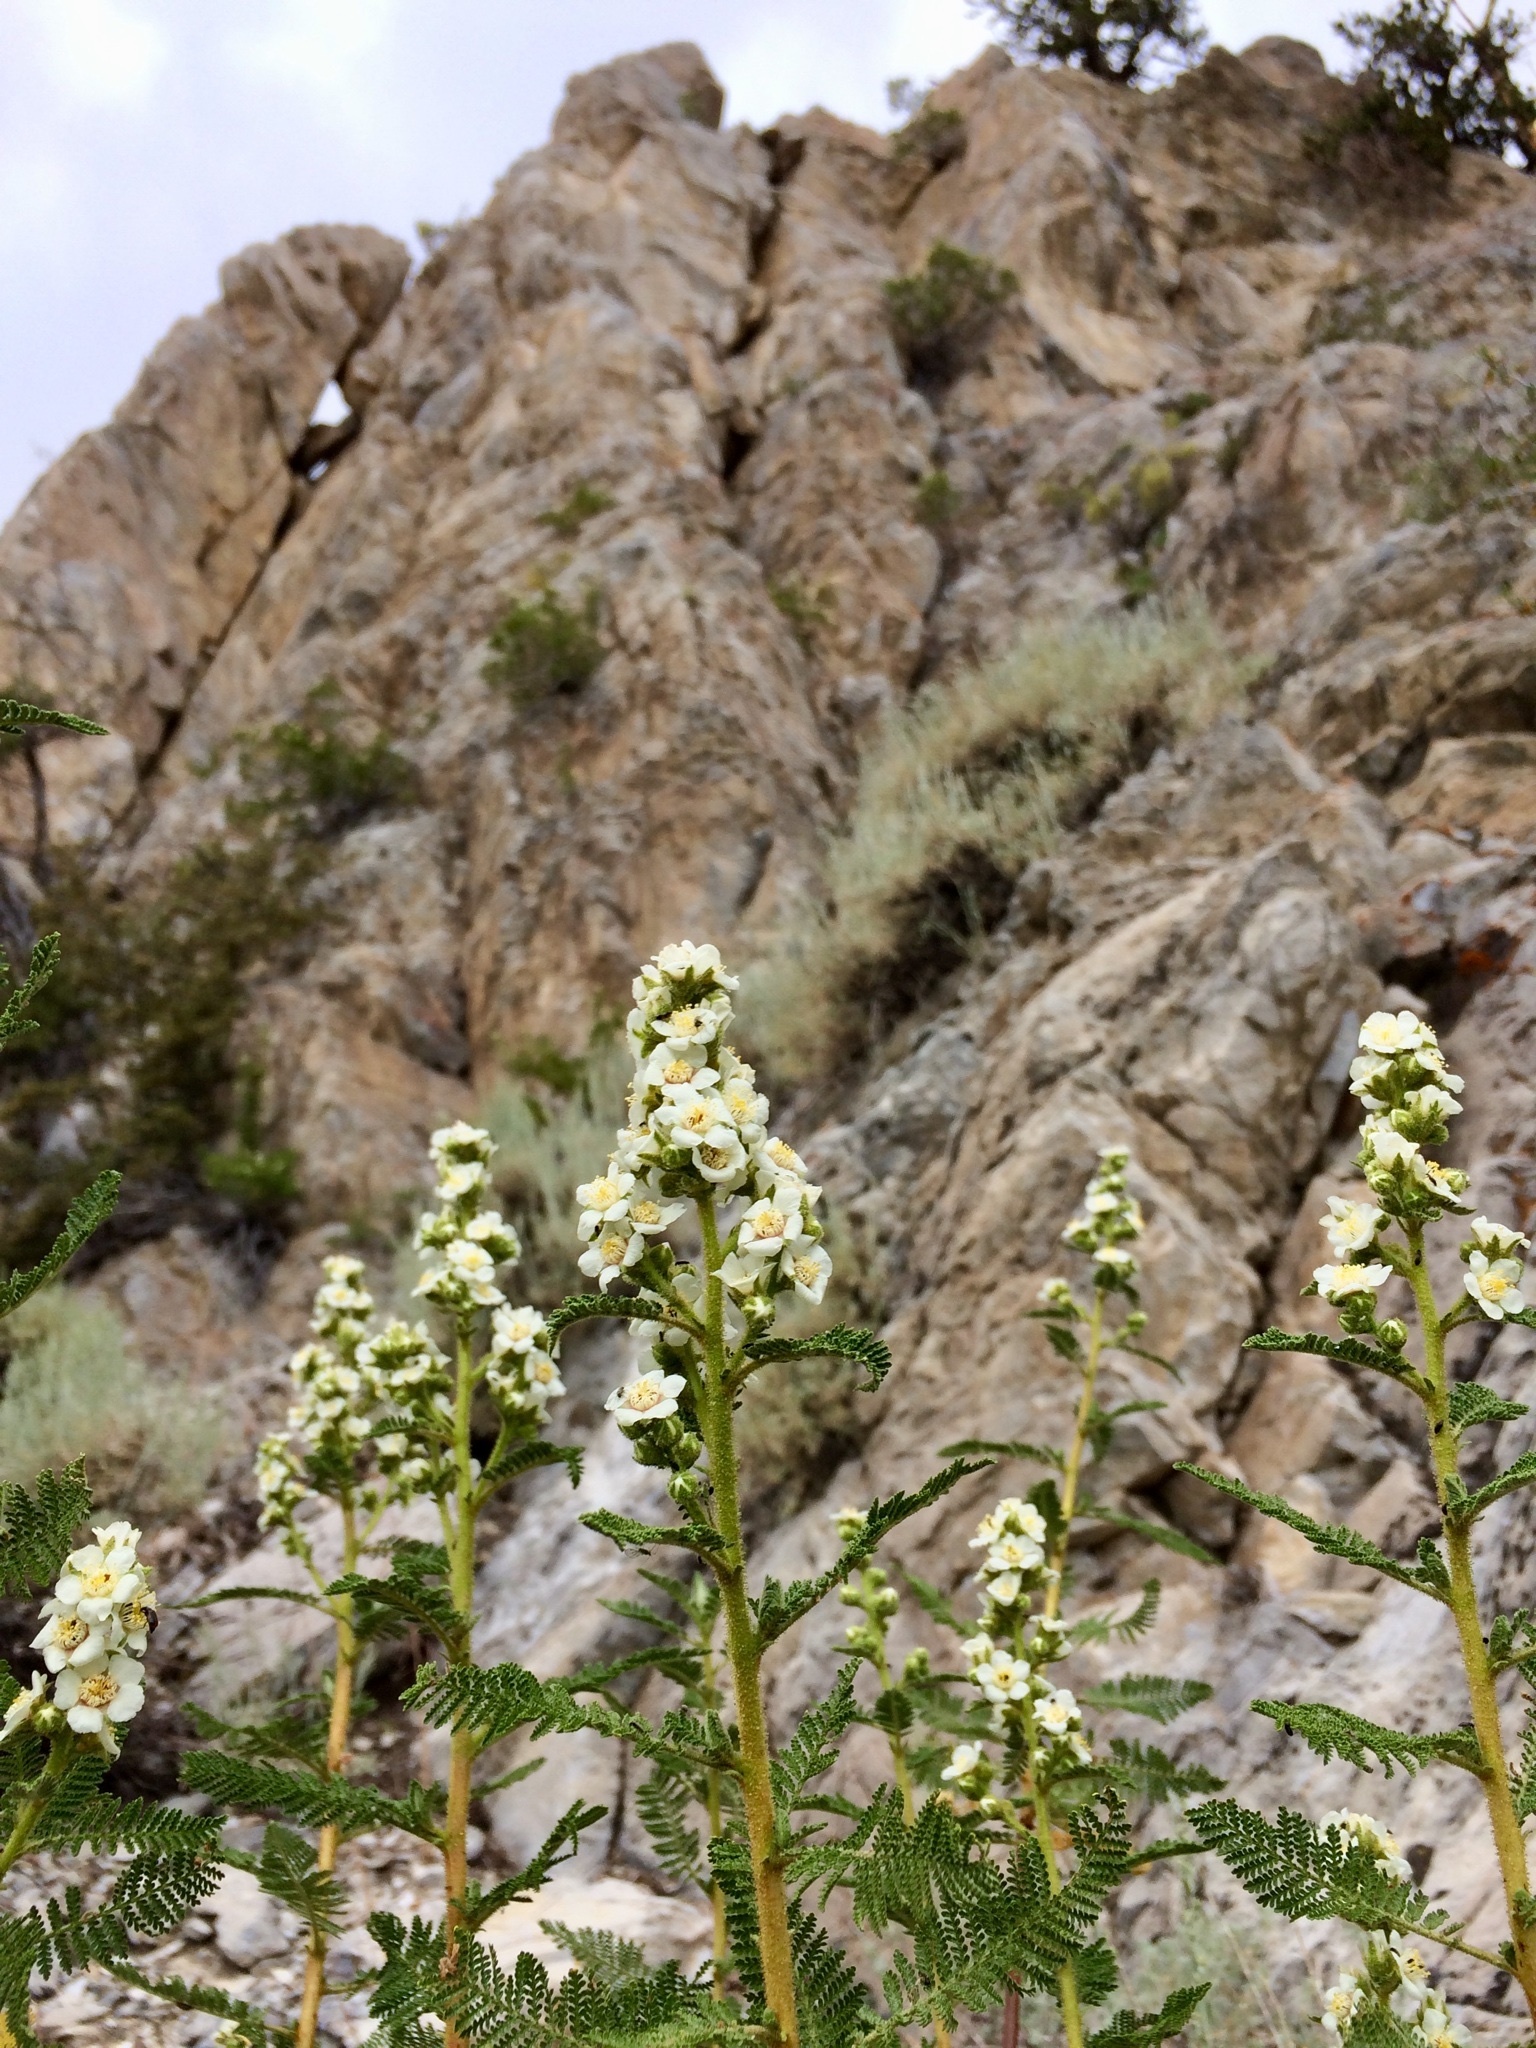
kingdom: Plantae
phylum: Tracheophyta
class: Magnoliopsida
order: Rosales
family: Rosaceae
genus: Chamaebatiaria
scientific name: Chamaebatiaria millefolium
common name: Fernbush
